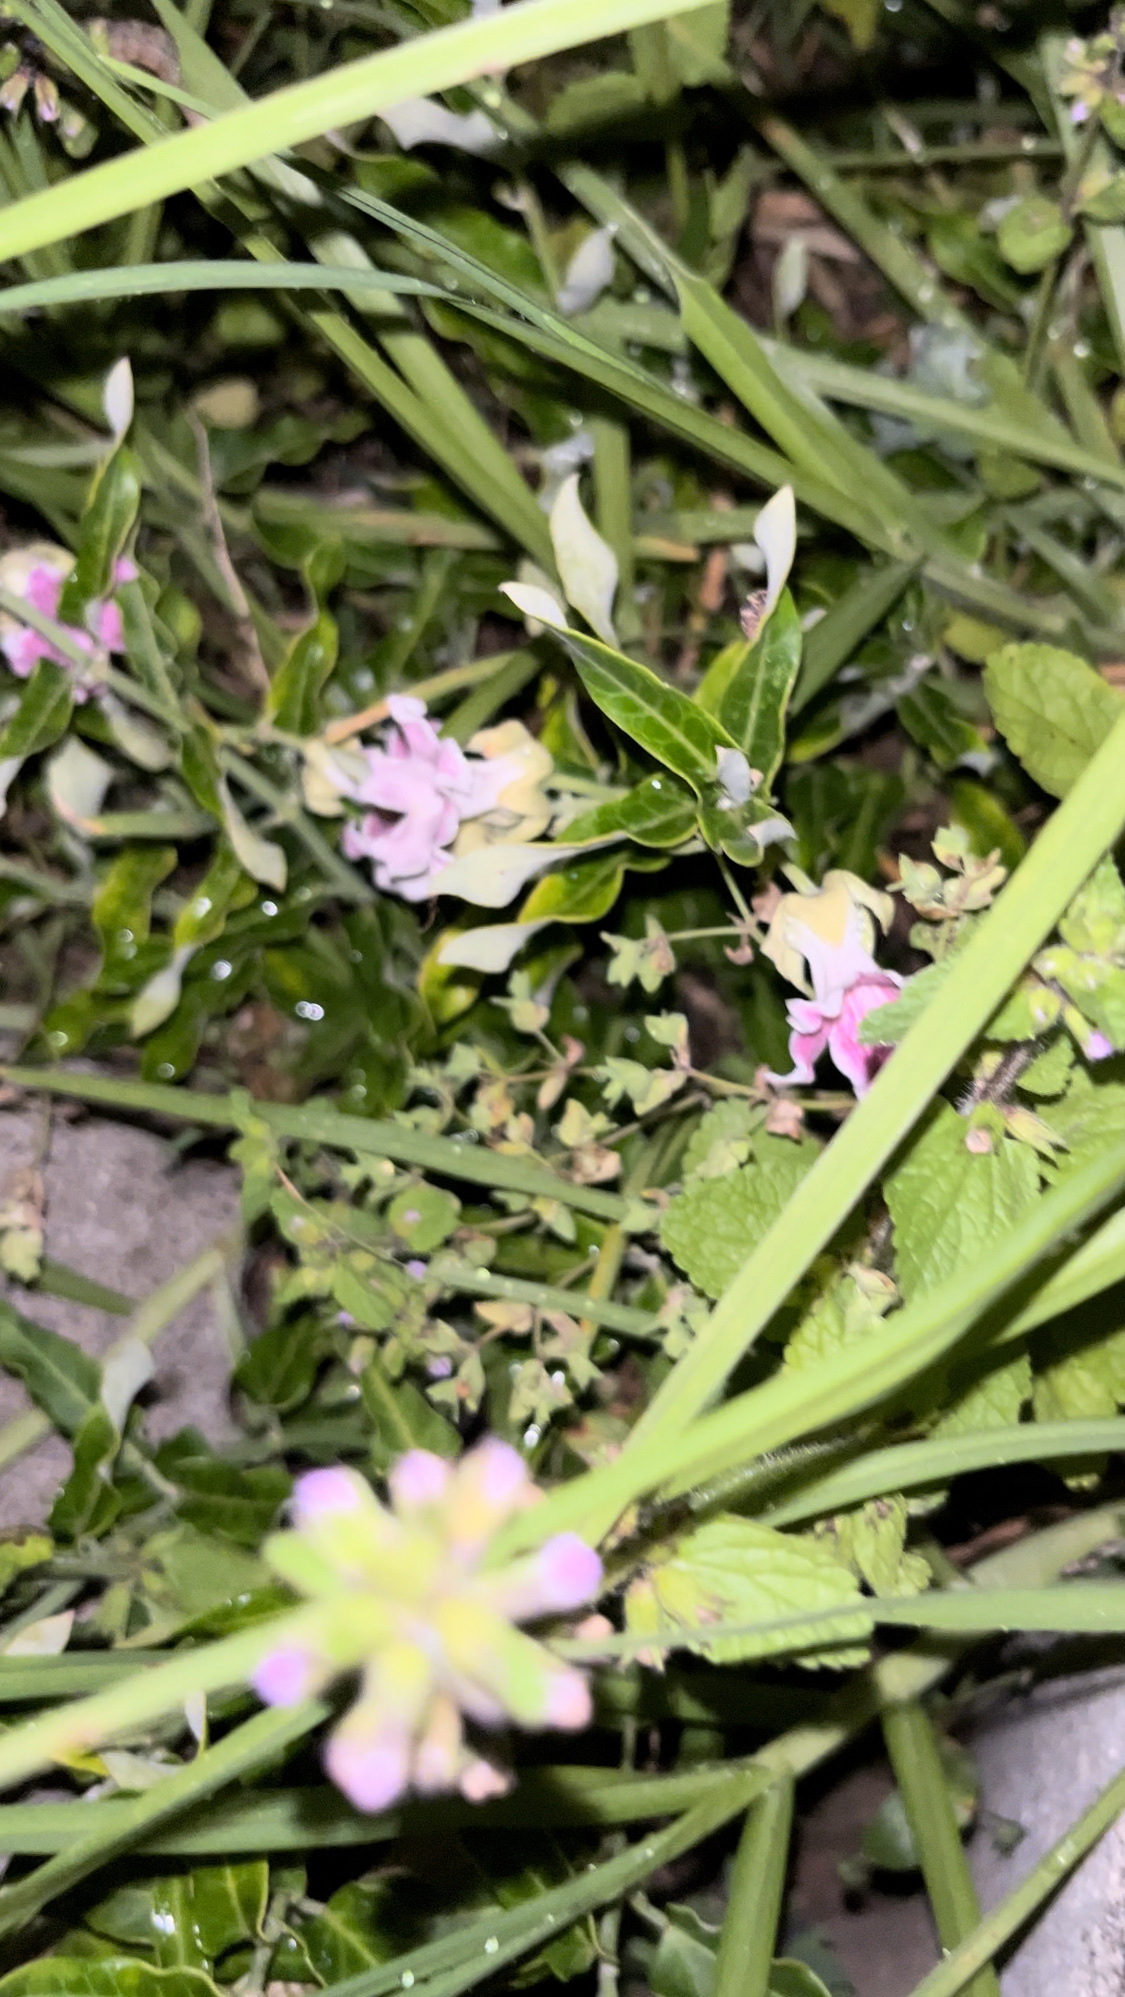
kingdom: Plantae
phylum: Tracheophyta
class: Magnoliopsida
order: Gentianales
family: Apocynaceae
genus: Araujia
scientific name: Araujia sericifera
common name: White bladderflower
